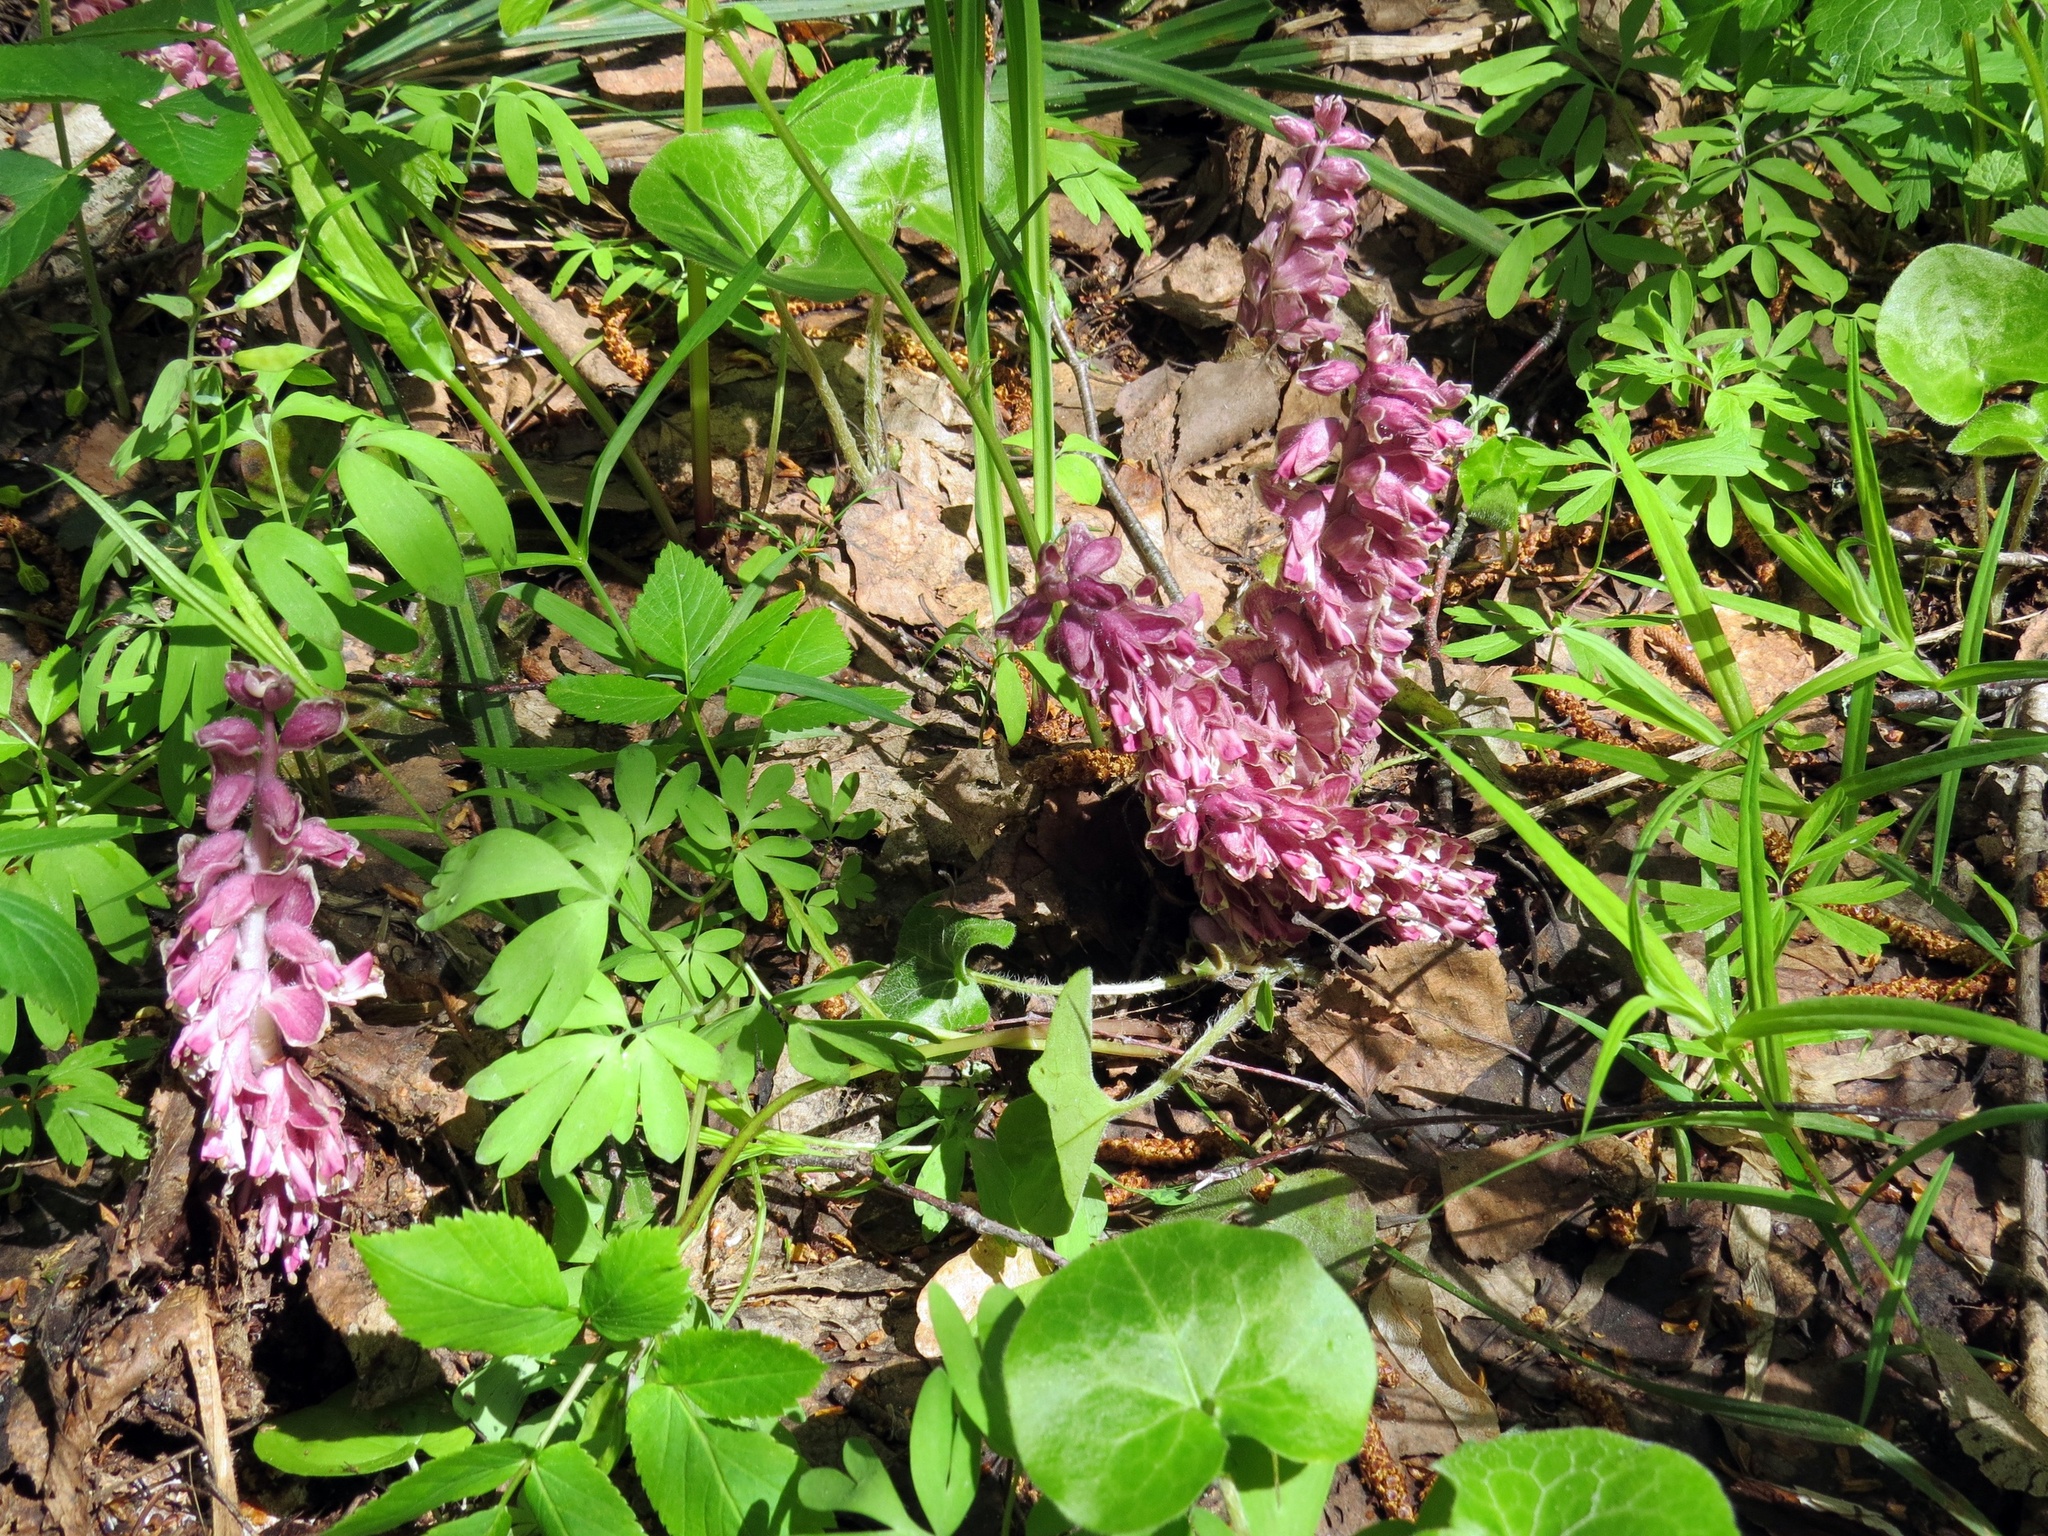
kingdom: Plantae
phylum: Tracheophyta
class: Magnoliopsida
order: Lamiales
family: Orobanchaceae
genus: Lathraea
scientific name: Lathraea squamaria
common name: Toothwort
